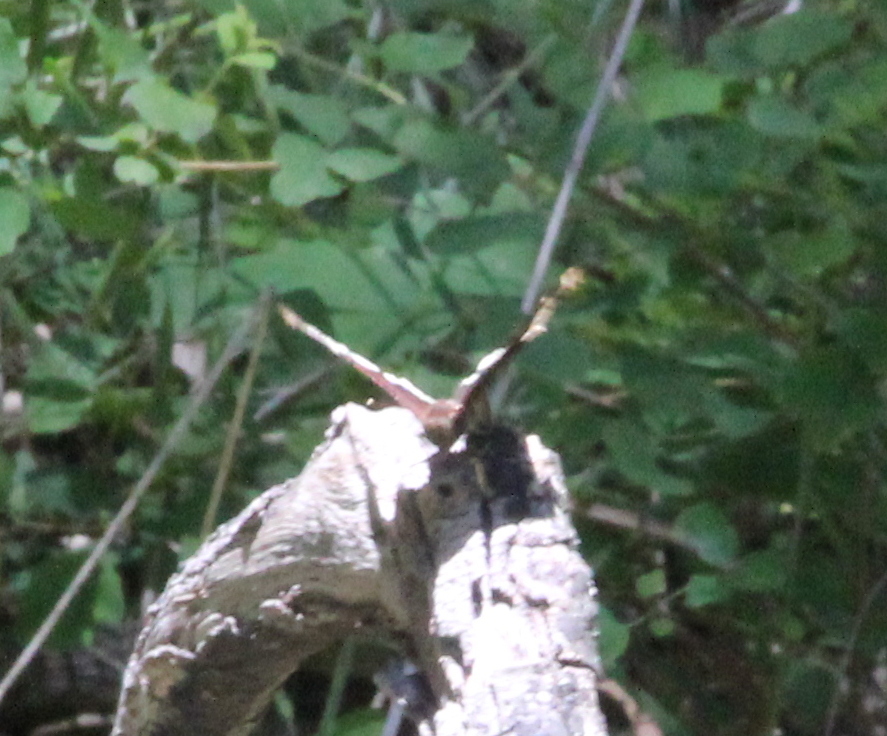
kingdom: Animalia
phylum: Arthropoda
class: Insecta
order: Lepidoptera
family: Nymphalidae
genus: Nymphalis
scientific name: Nymphalis antiopa
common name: Camberwell beauty
